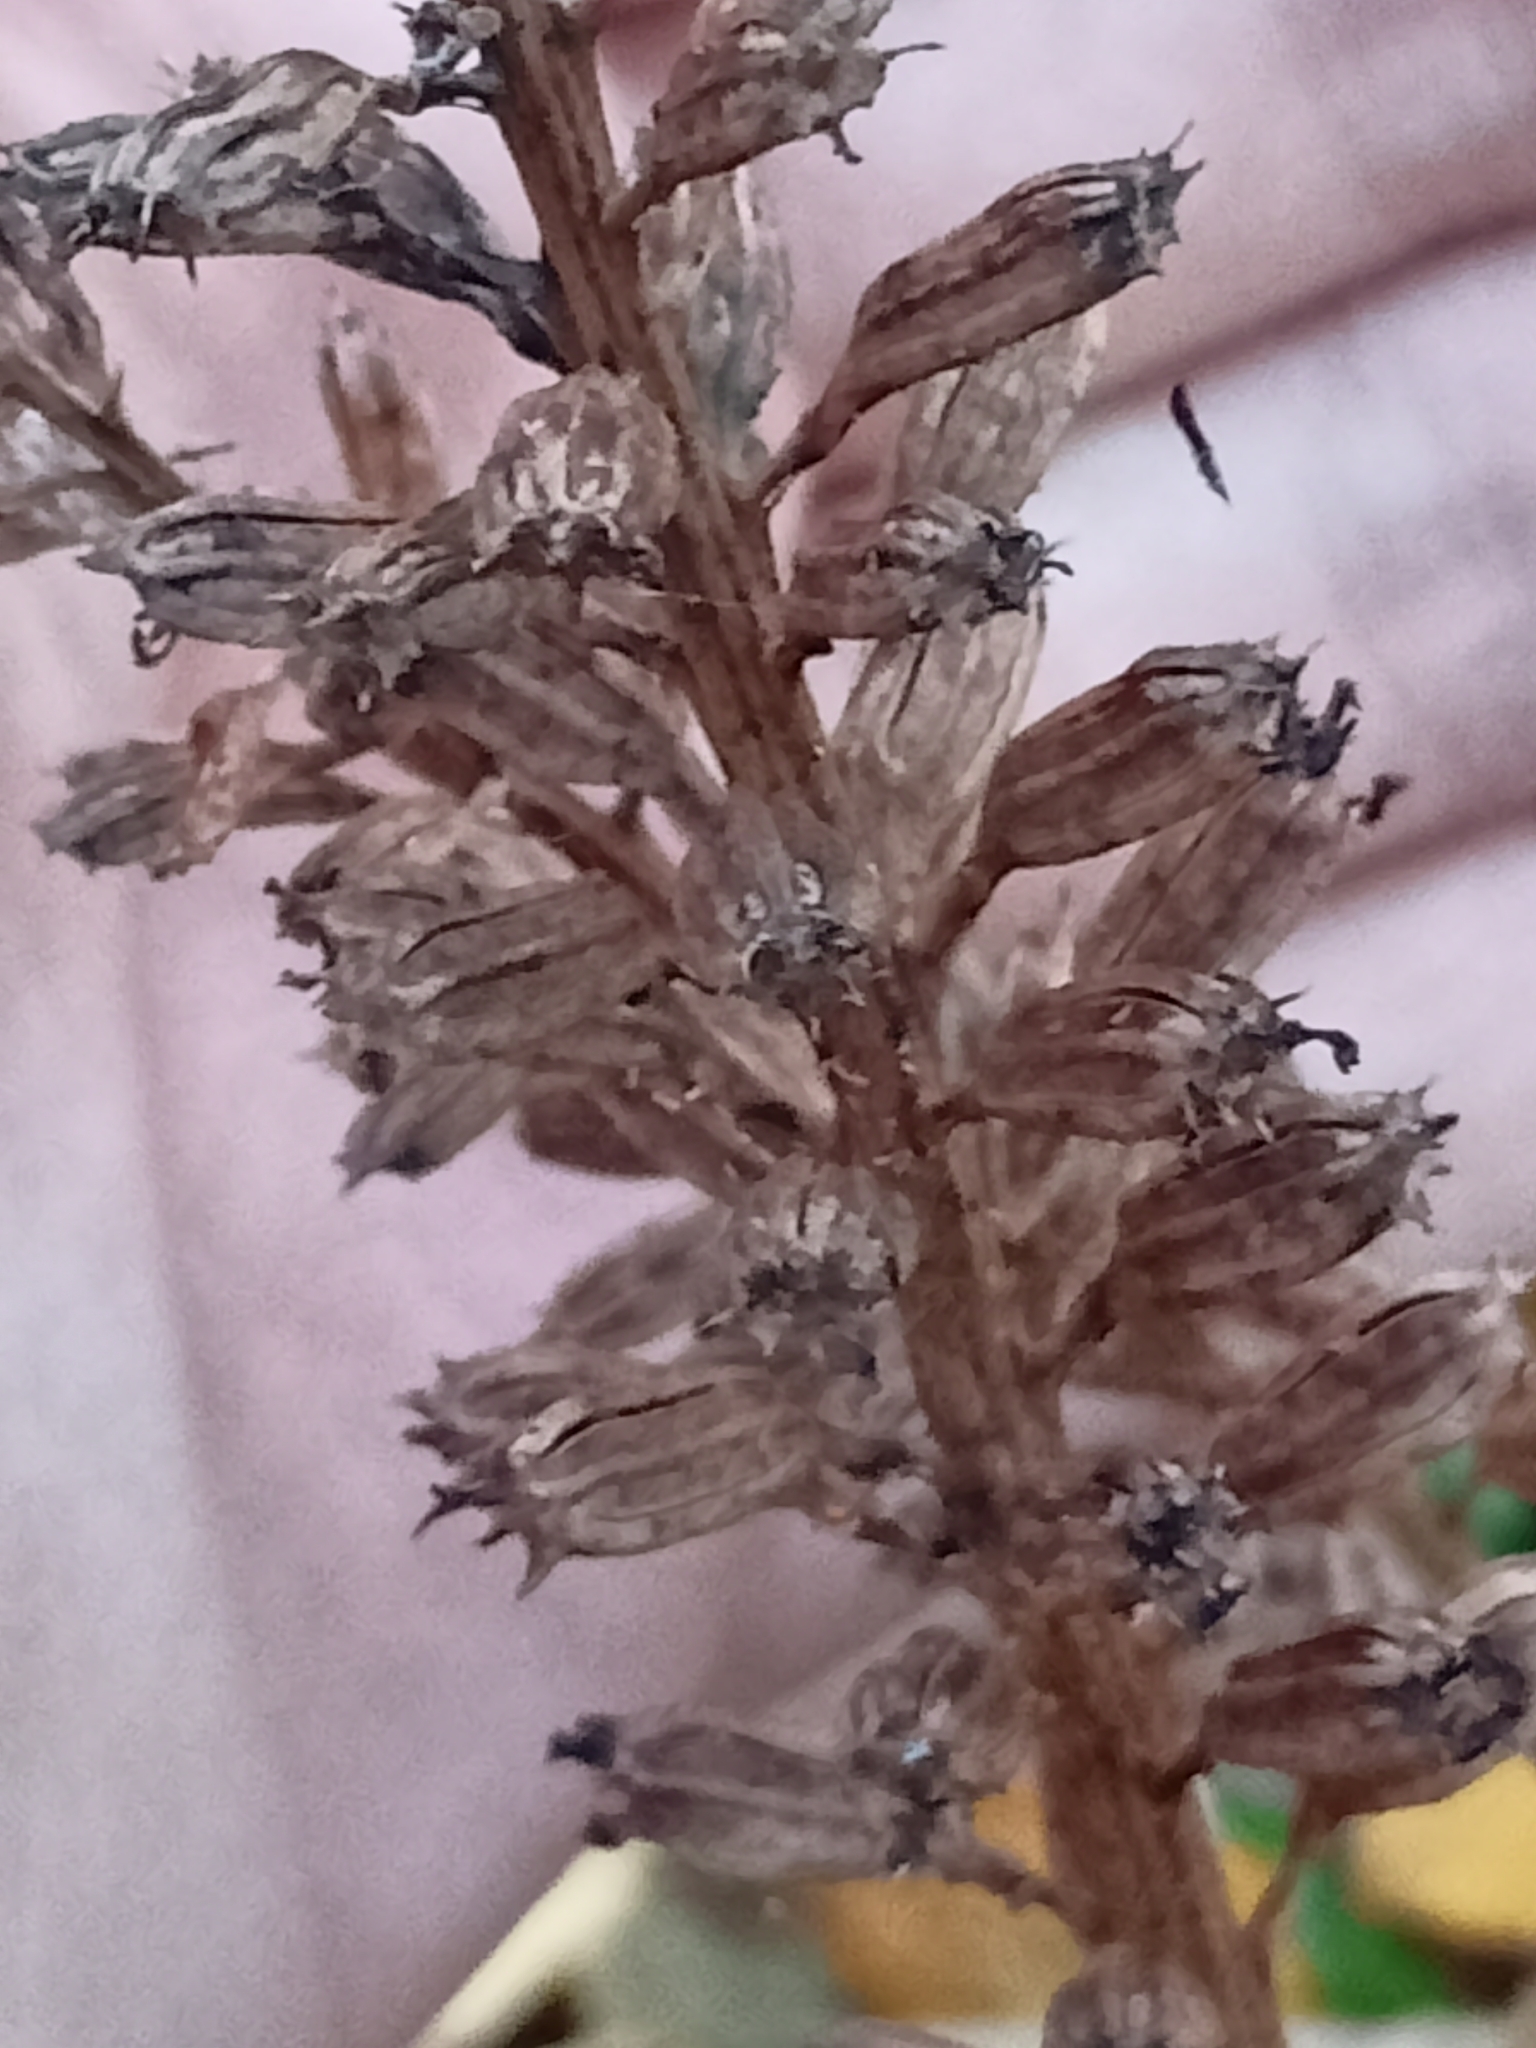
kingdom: Plantae
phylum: Tracheophyta
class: Liliopsida
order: Asparagales
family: Orchidaceae
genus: Neottia
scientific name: Neottia nidus-avis
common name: Bird's-nest orchid
